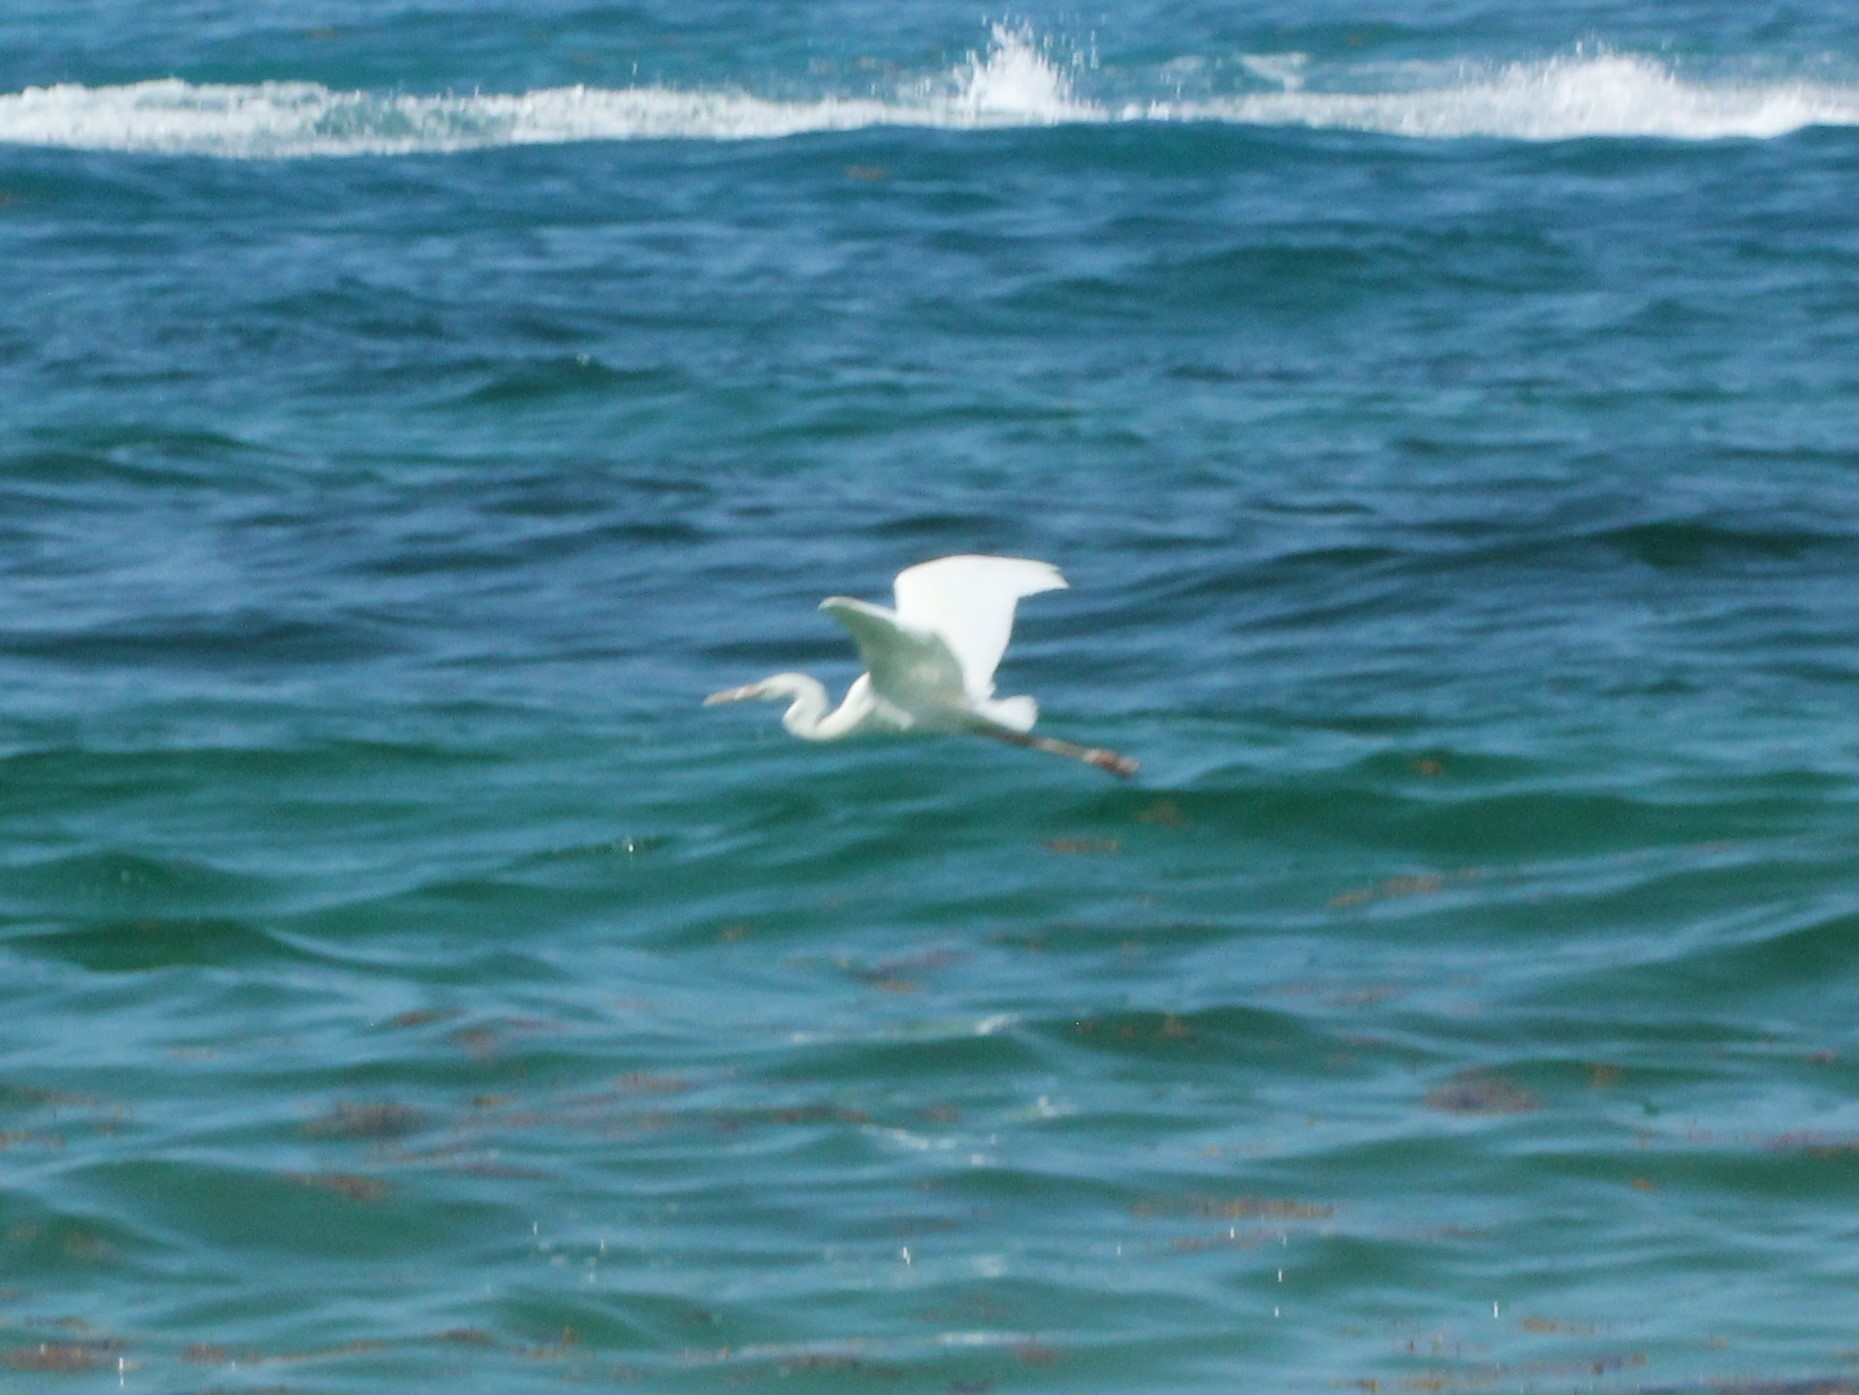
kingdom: Animalia
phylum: Chordata
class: Aves
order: Pelecaniformes
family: Ardeidae
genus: Ardea
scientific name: Ardea herodias
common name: Great blue heron
